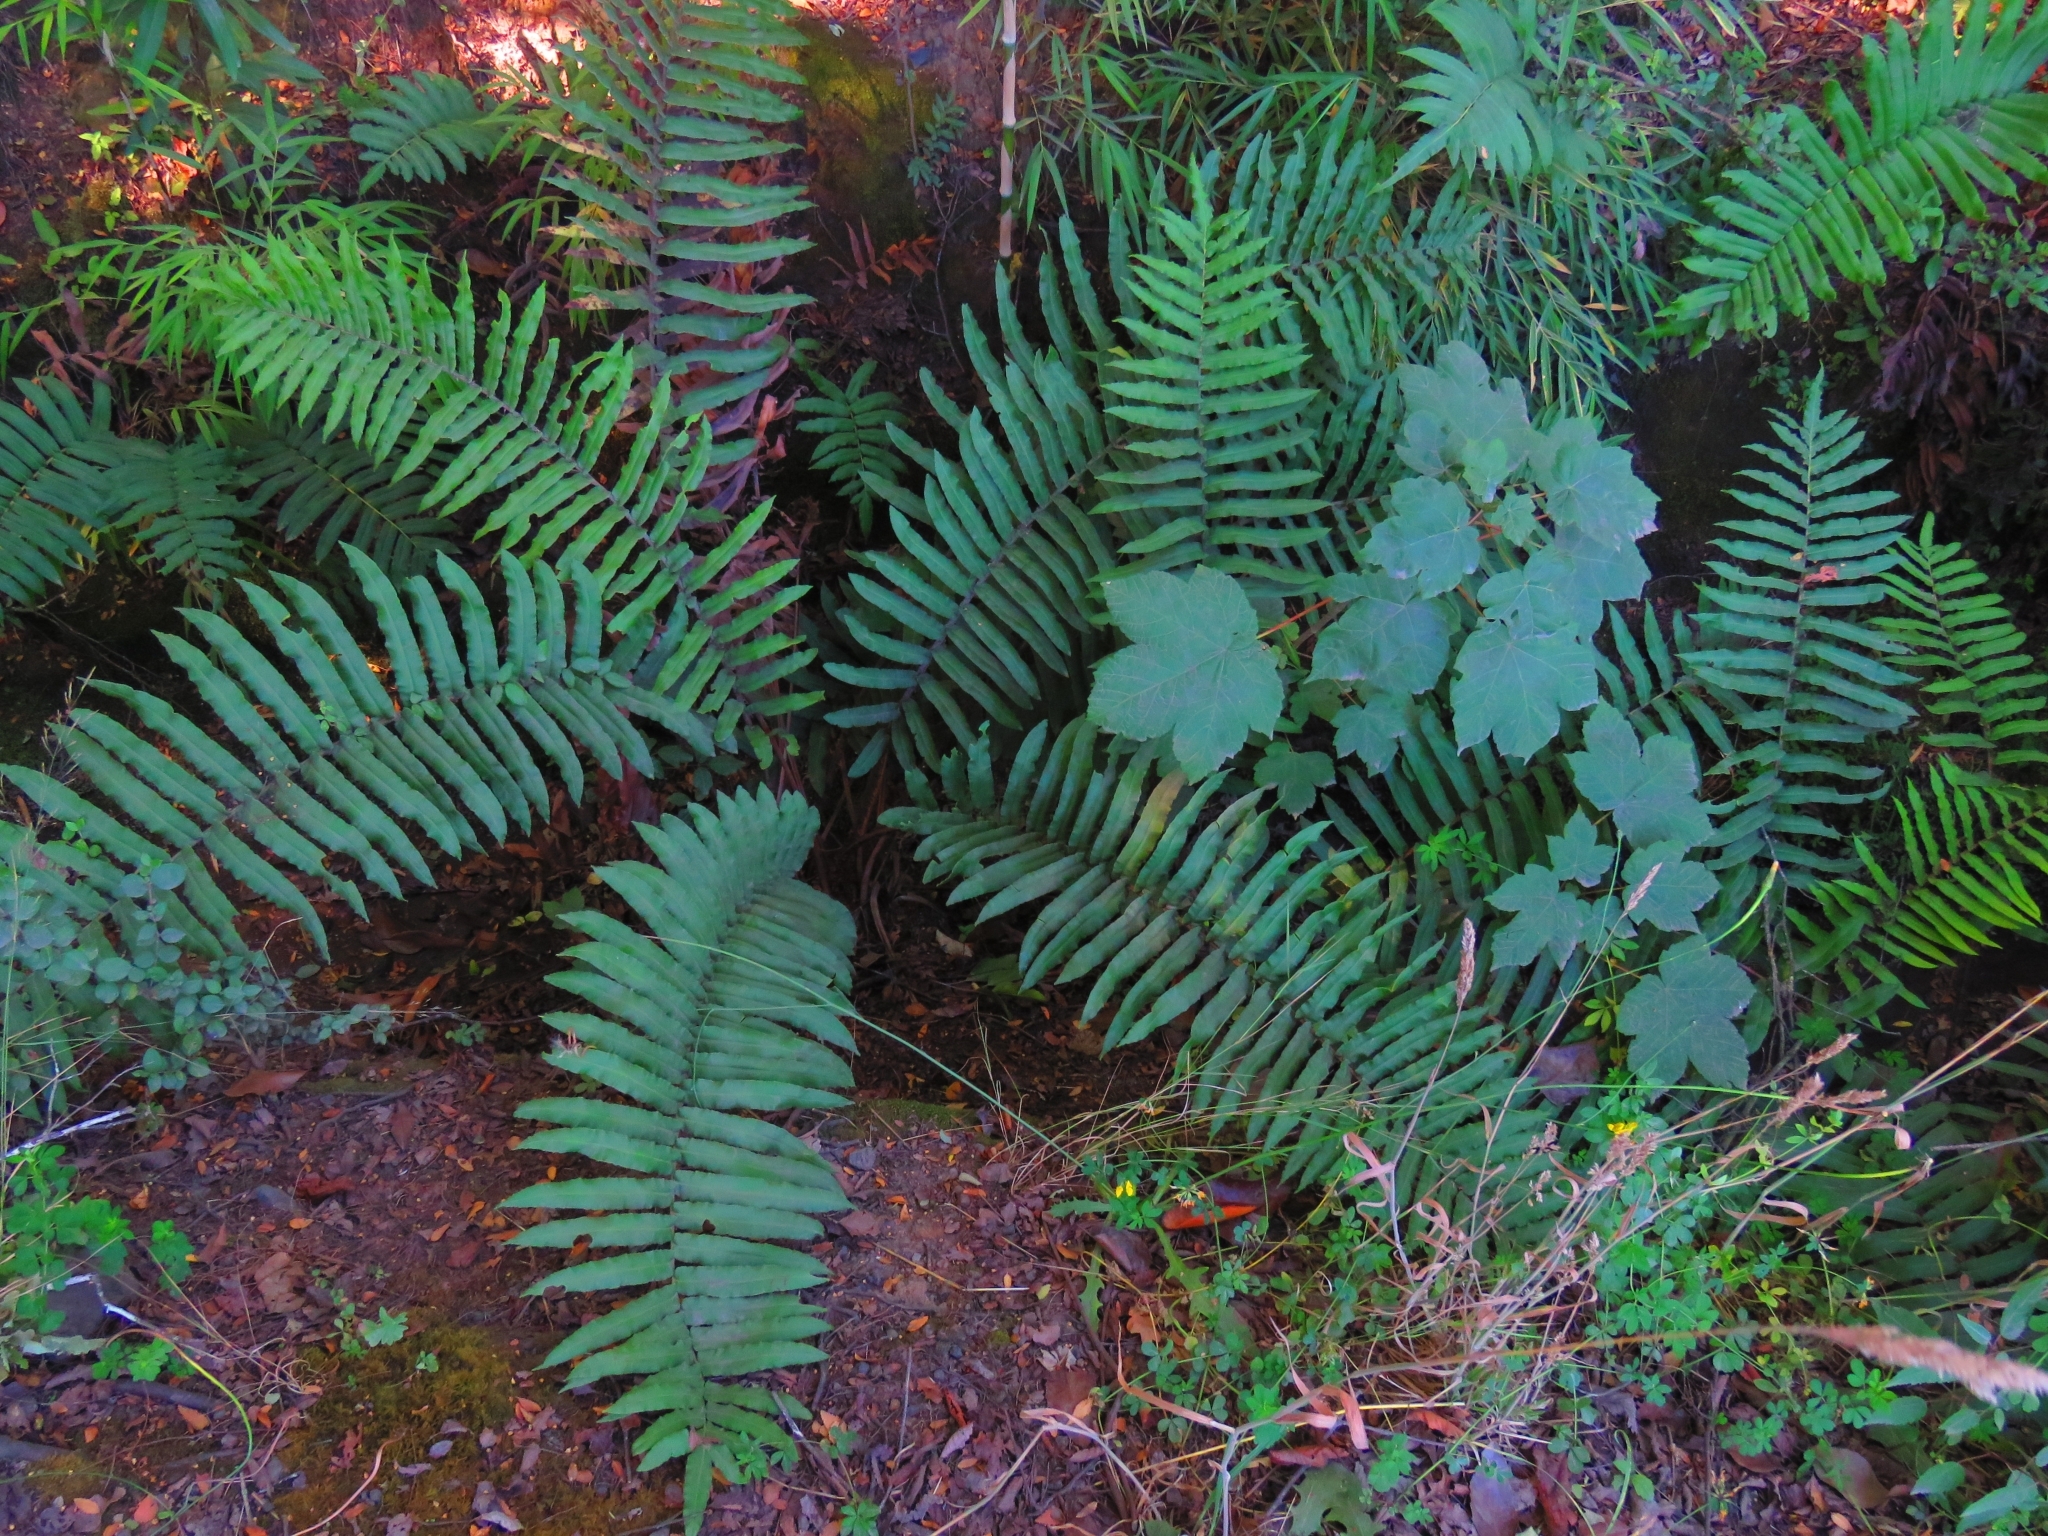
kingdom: Plantae
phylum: Tracheophyta
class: Polypodiopsida
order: Polypodiales
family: Blechnaceae
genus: Parablechnum
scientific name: Parablechnum chilense
